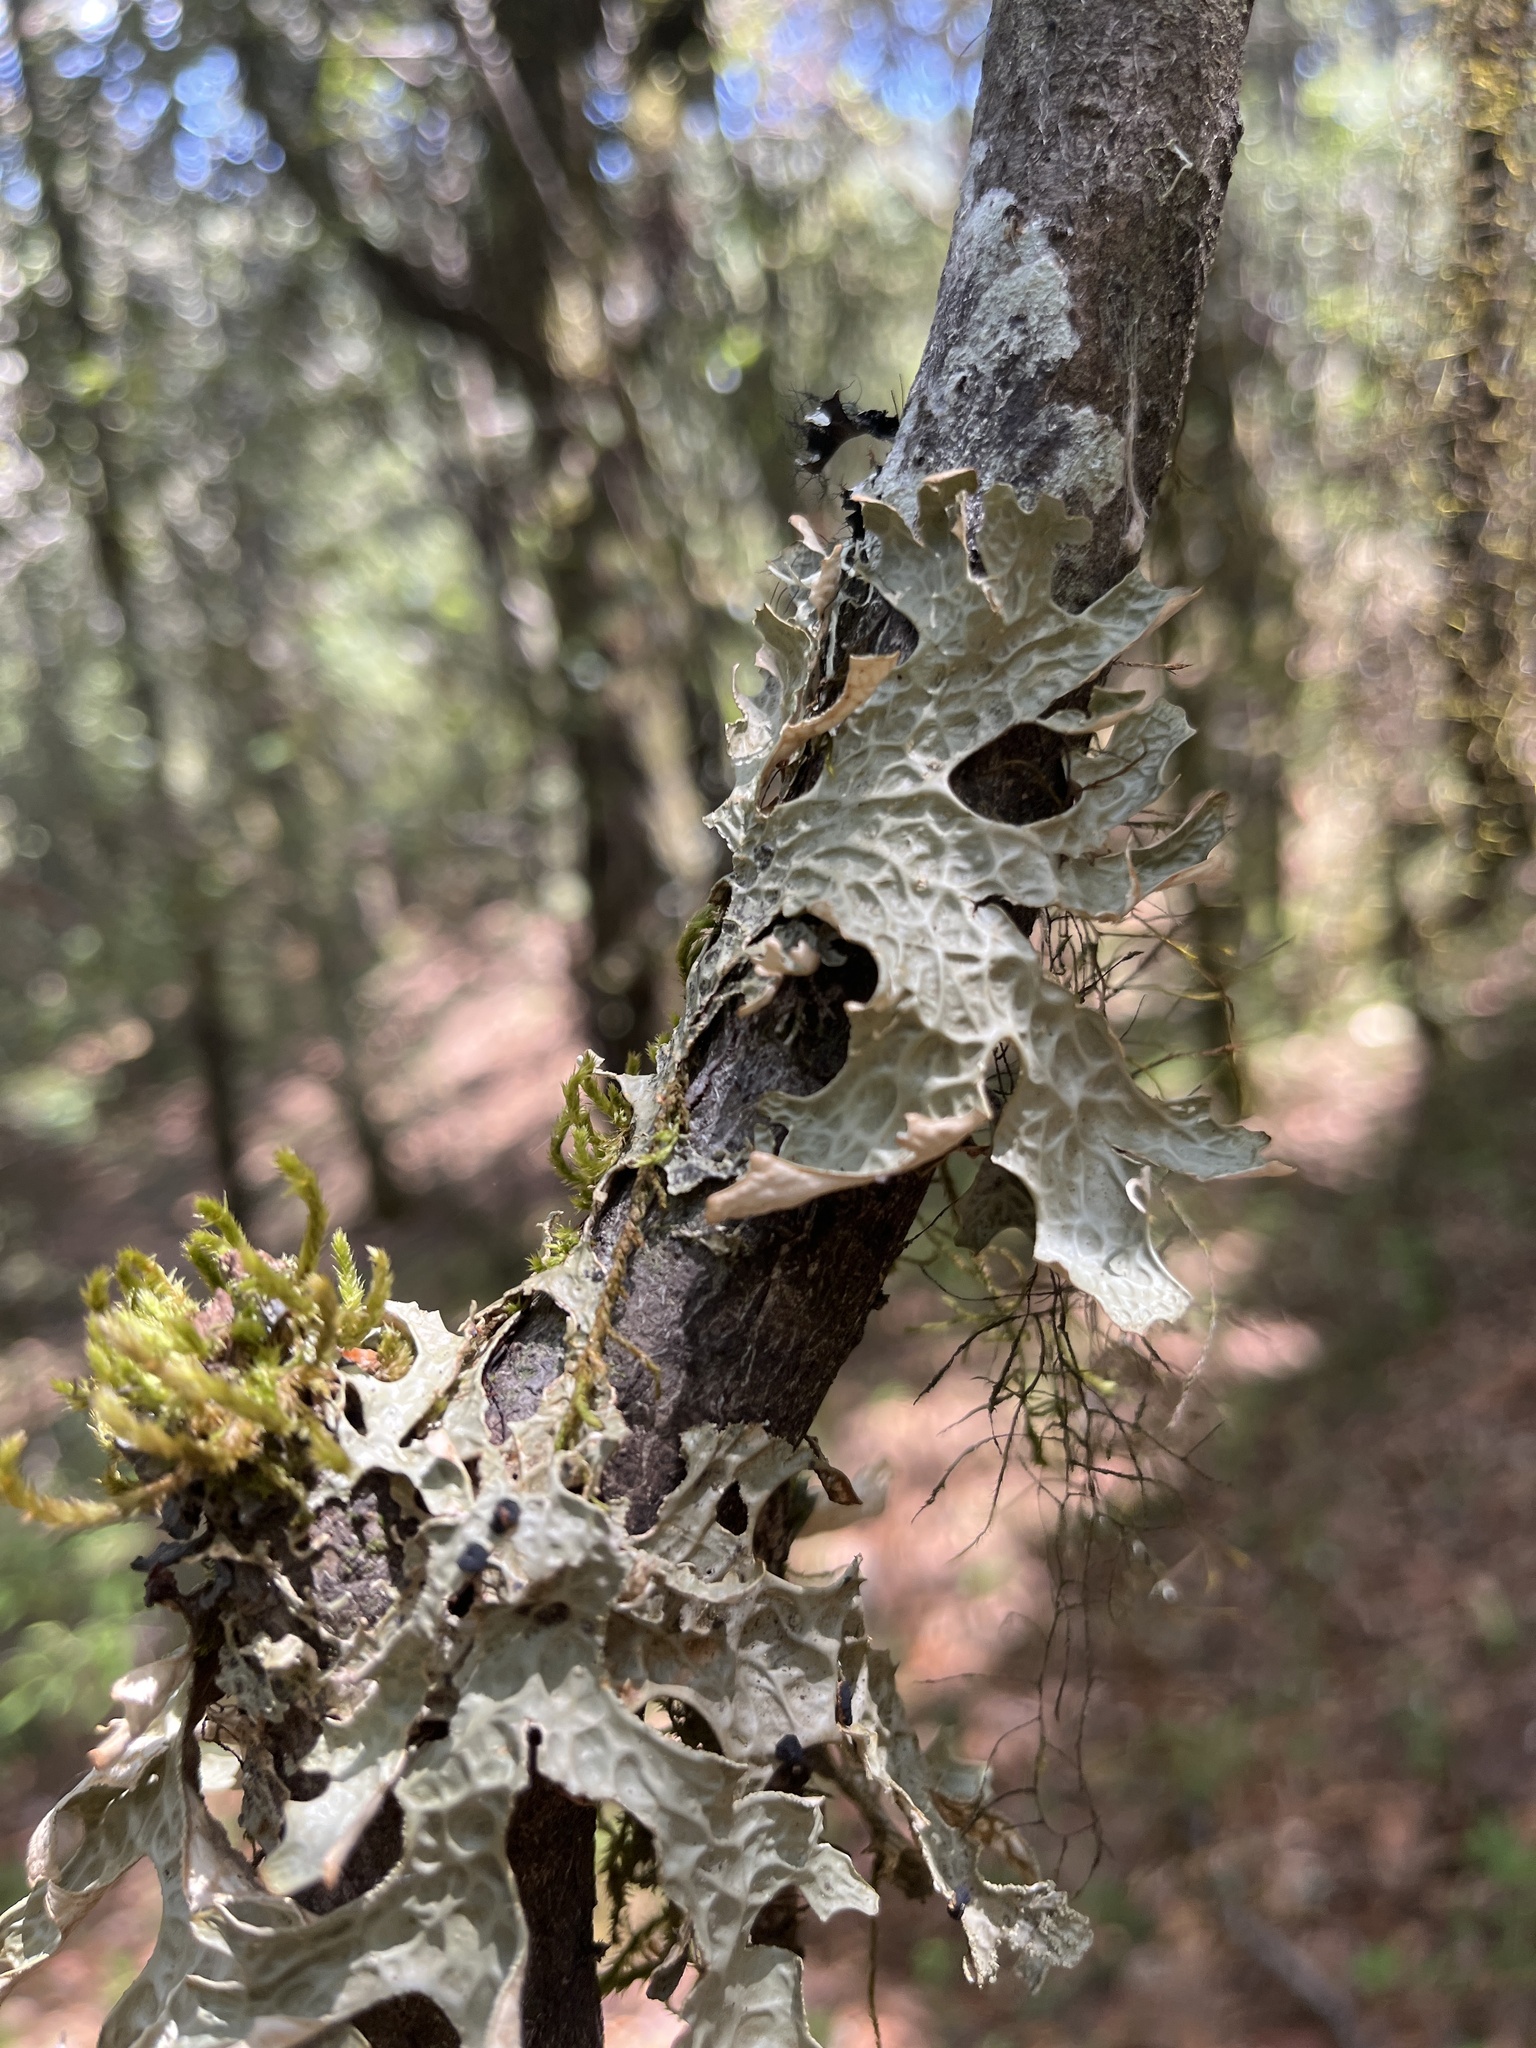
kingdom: Fungi
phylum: Ascomycota
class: Lecanoromycetes
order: Peltigerales
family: Lobariaceae
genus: Lobaria
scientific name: Lobaria pulmonaria
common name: Lungwort
